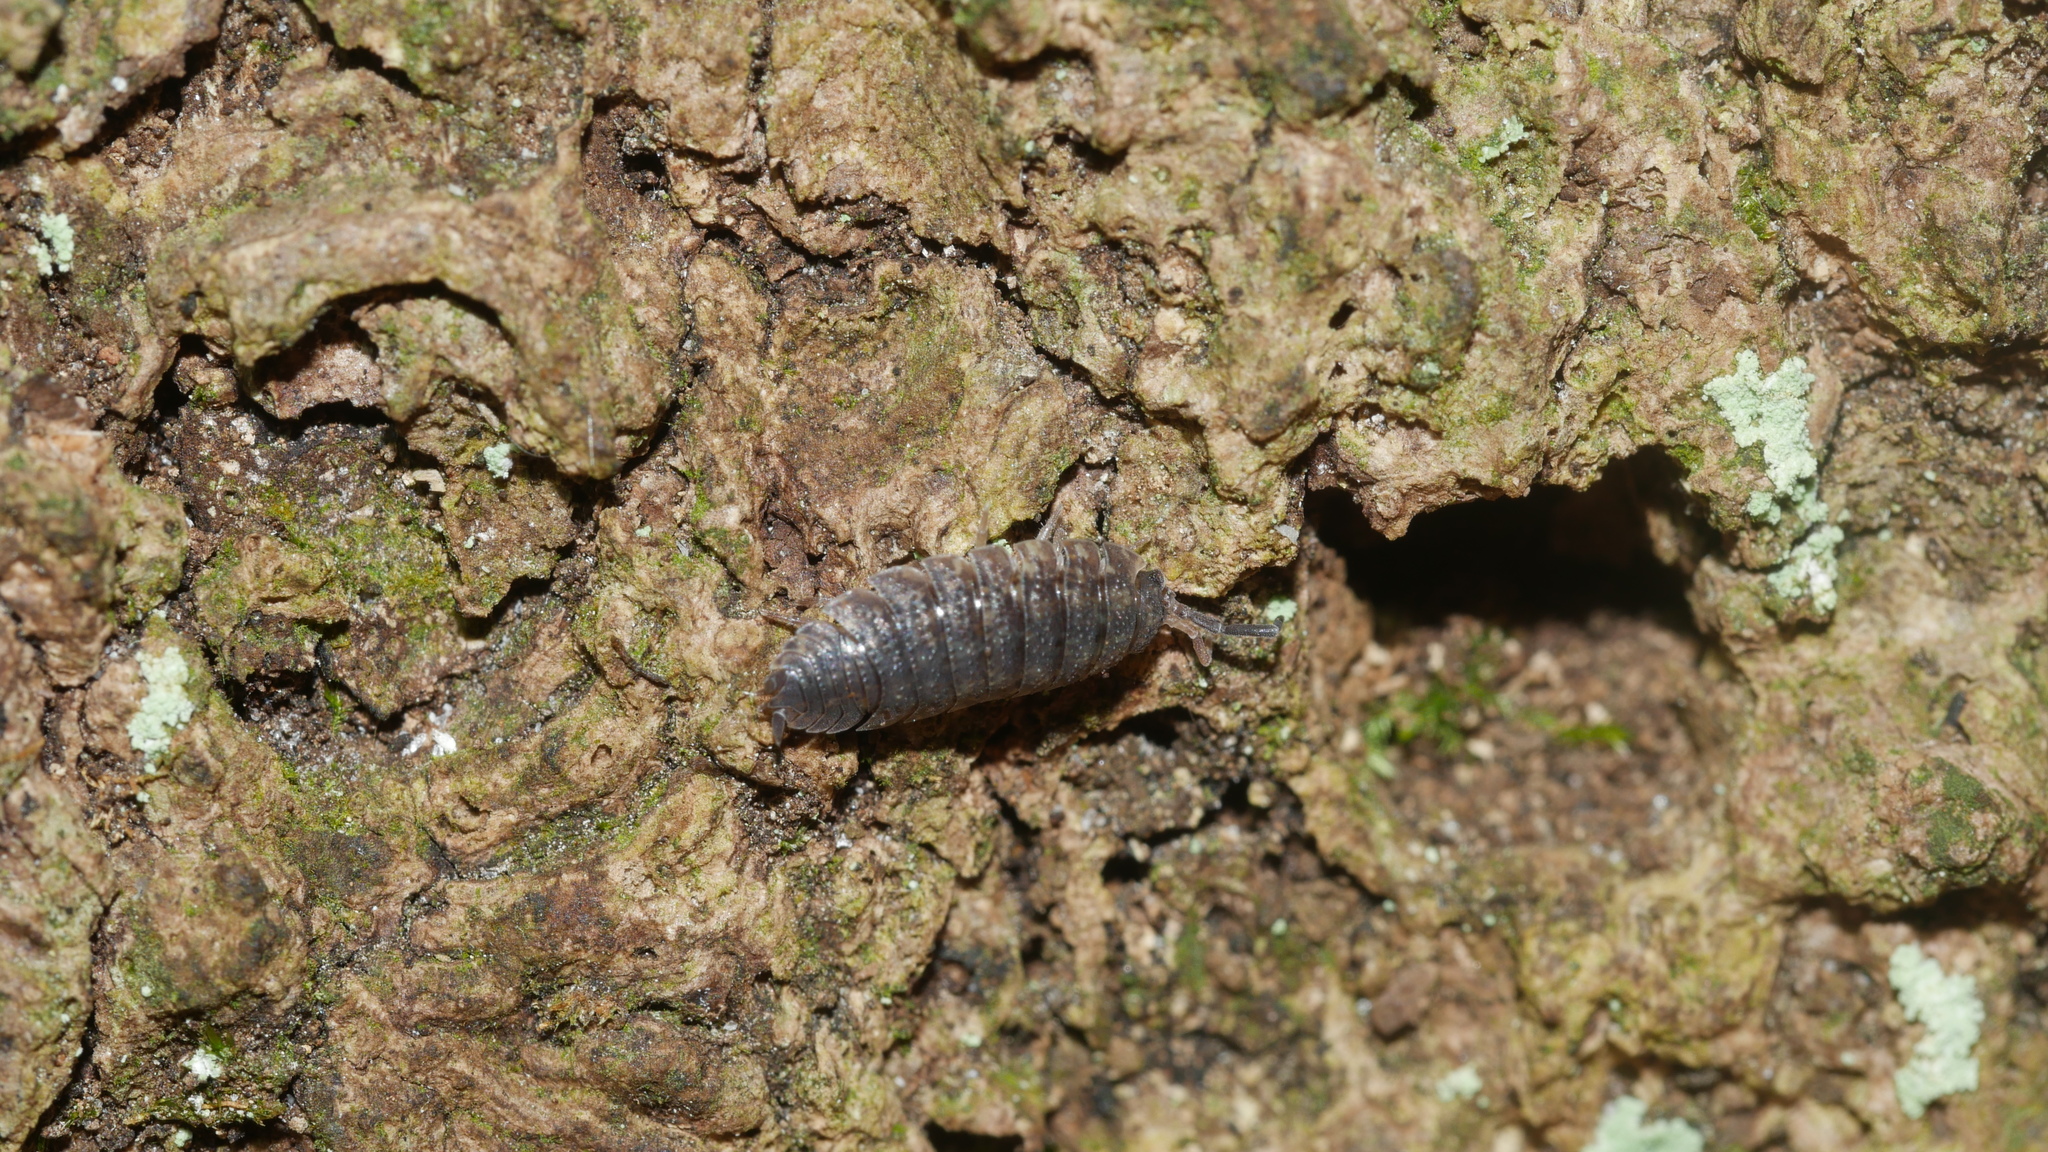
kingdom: Animalia
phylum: Arthropoda
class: Malacostraca
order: Isopoda
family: Porcellionidae
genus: Porcellio
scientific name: Porcellio scaber
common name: Common rough woodlouse
